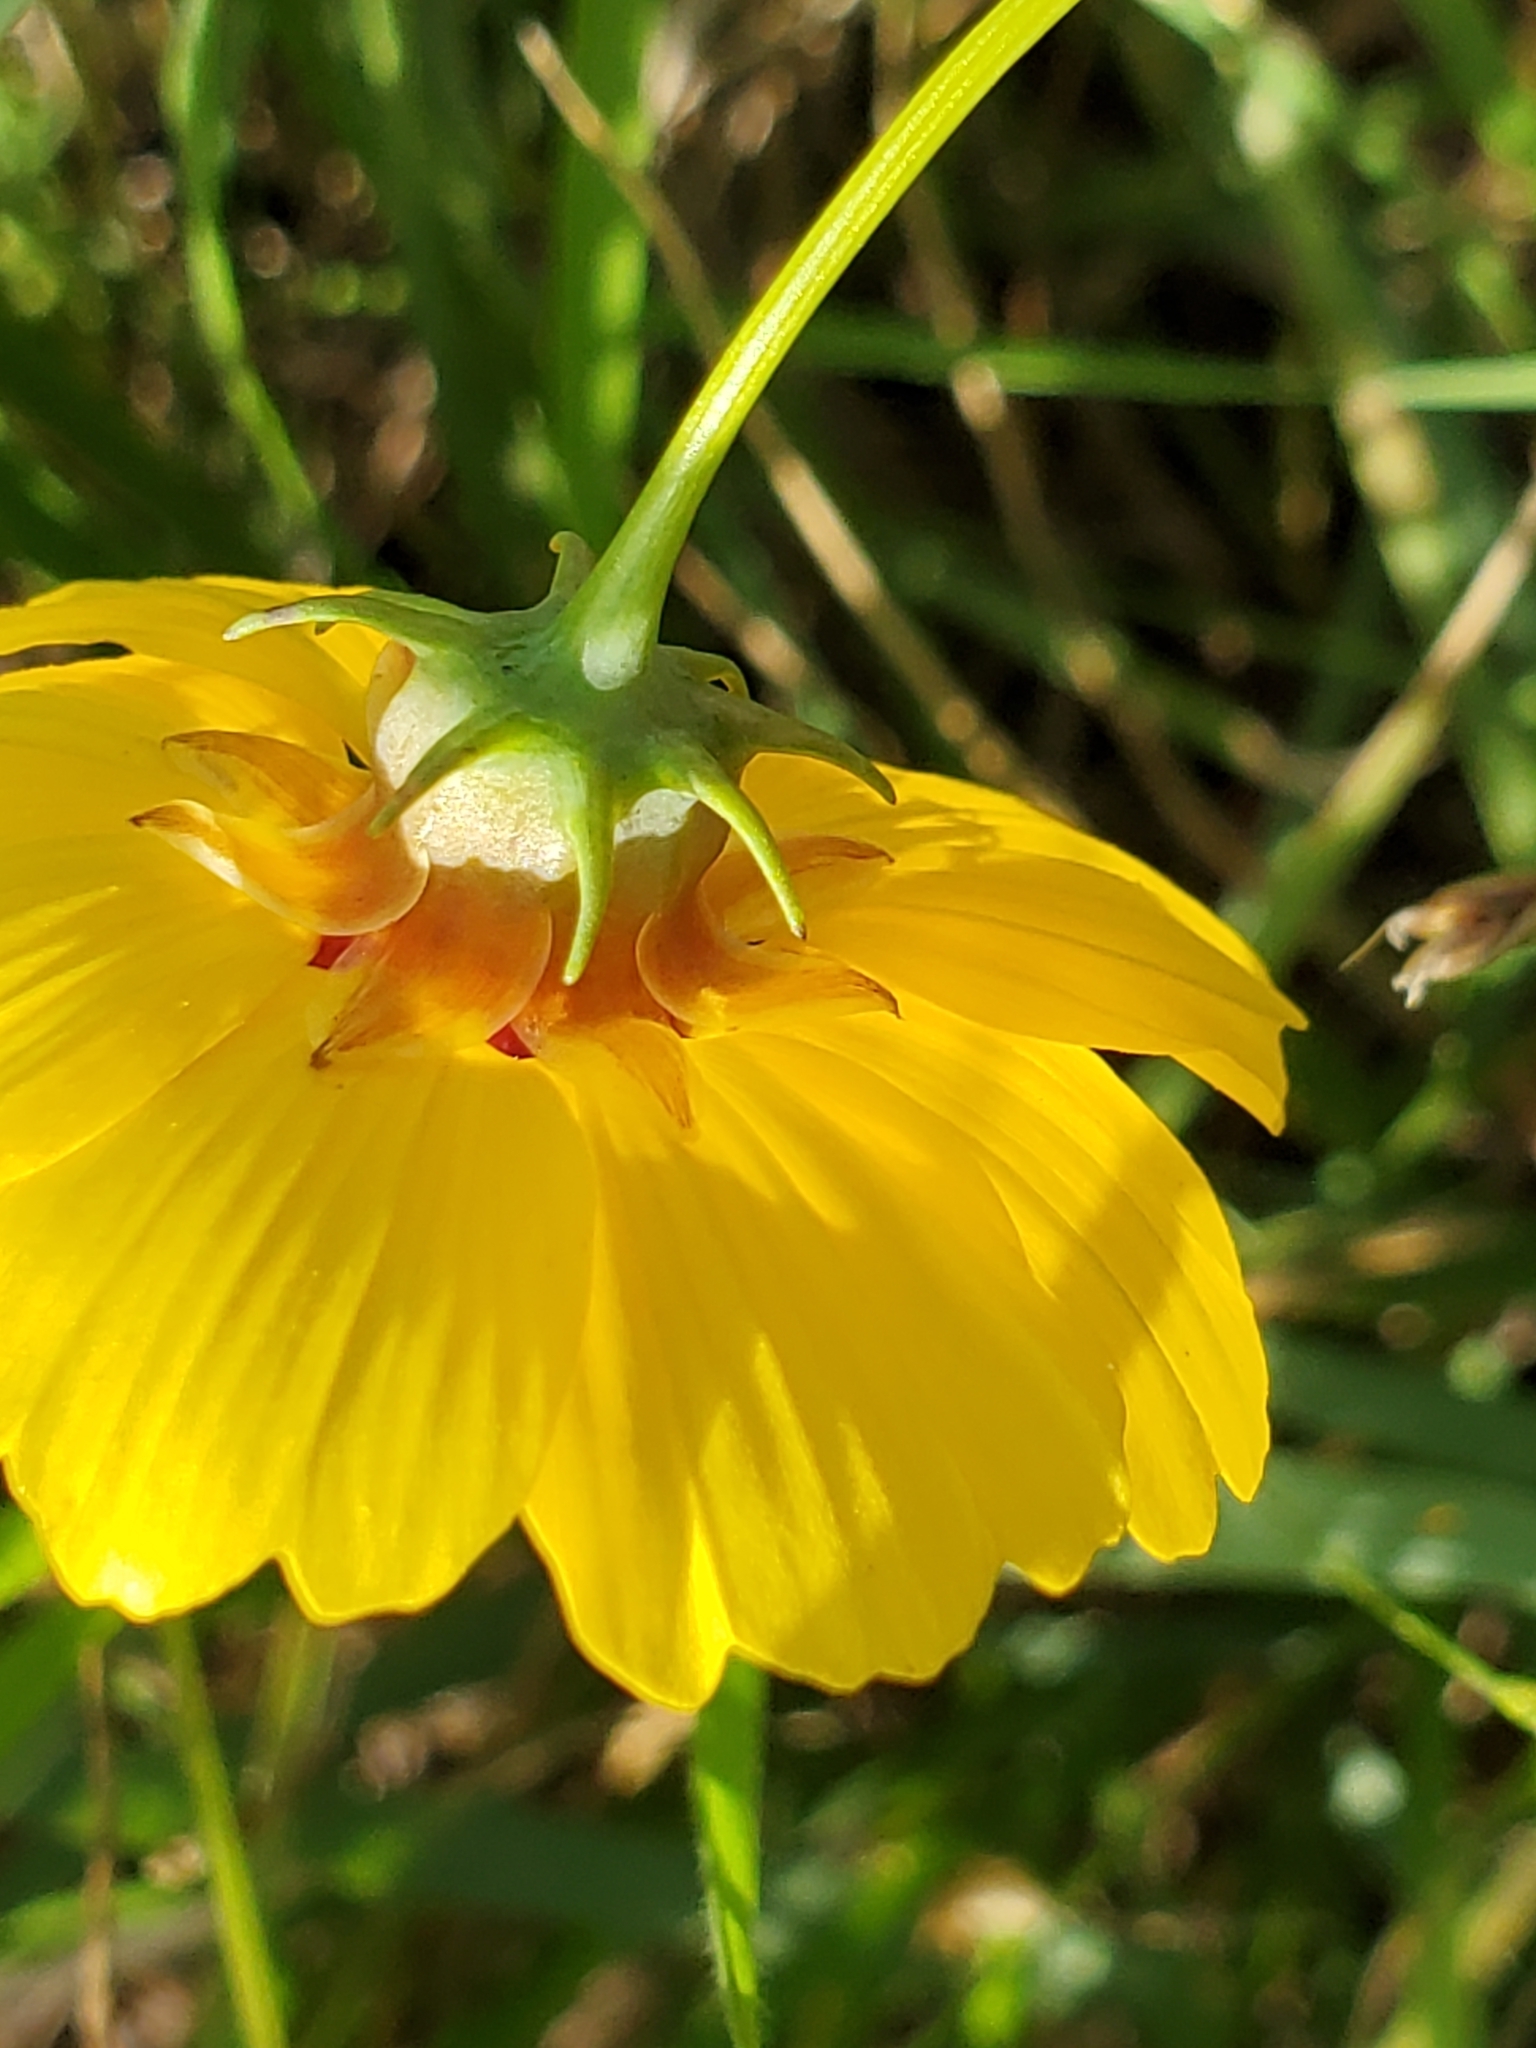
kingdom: Plantae
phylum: Tracheophyta
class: Magnoliopsida
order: Asterales
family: Asteraceae
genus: Thelesperma
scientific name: Thelesperma filifolium
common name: Stiff greenthread
